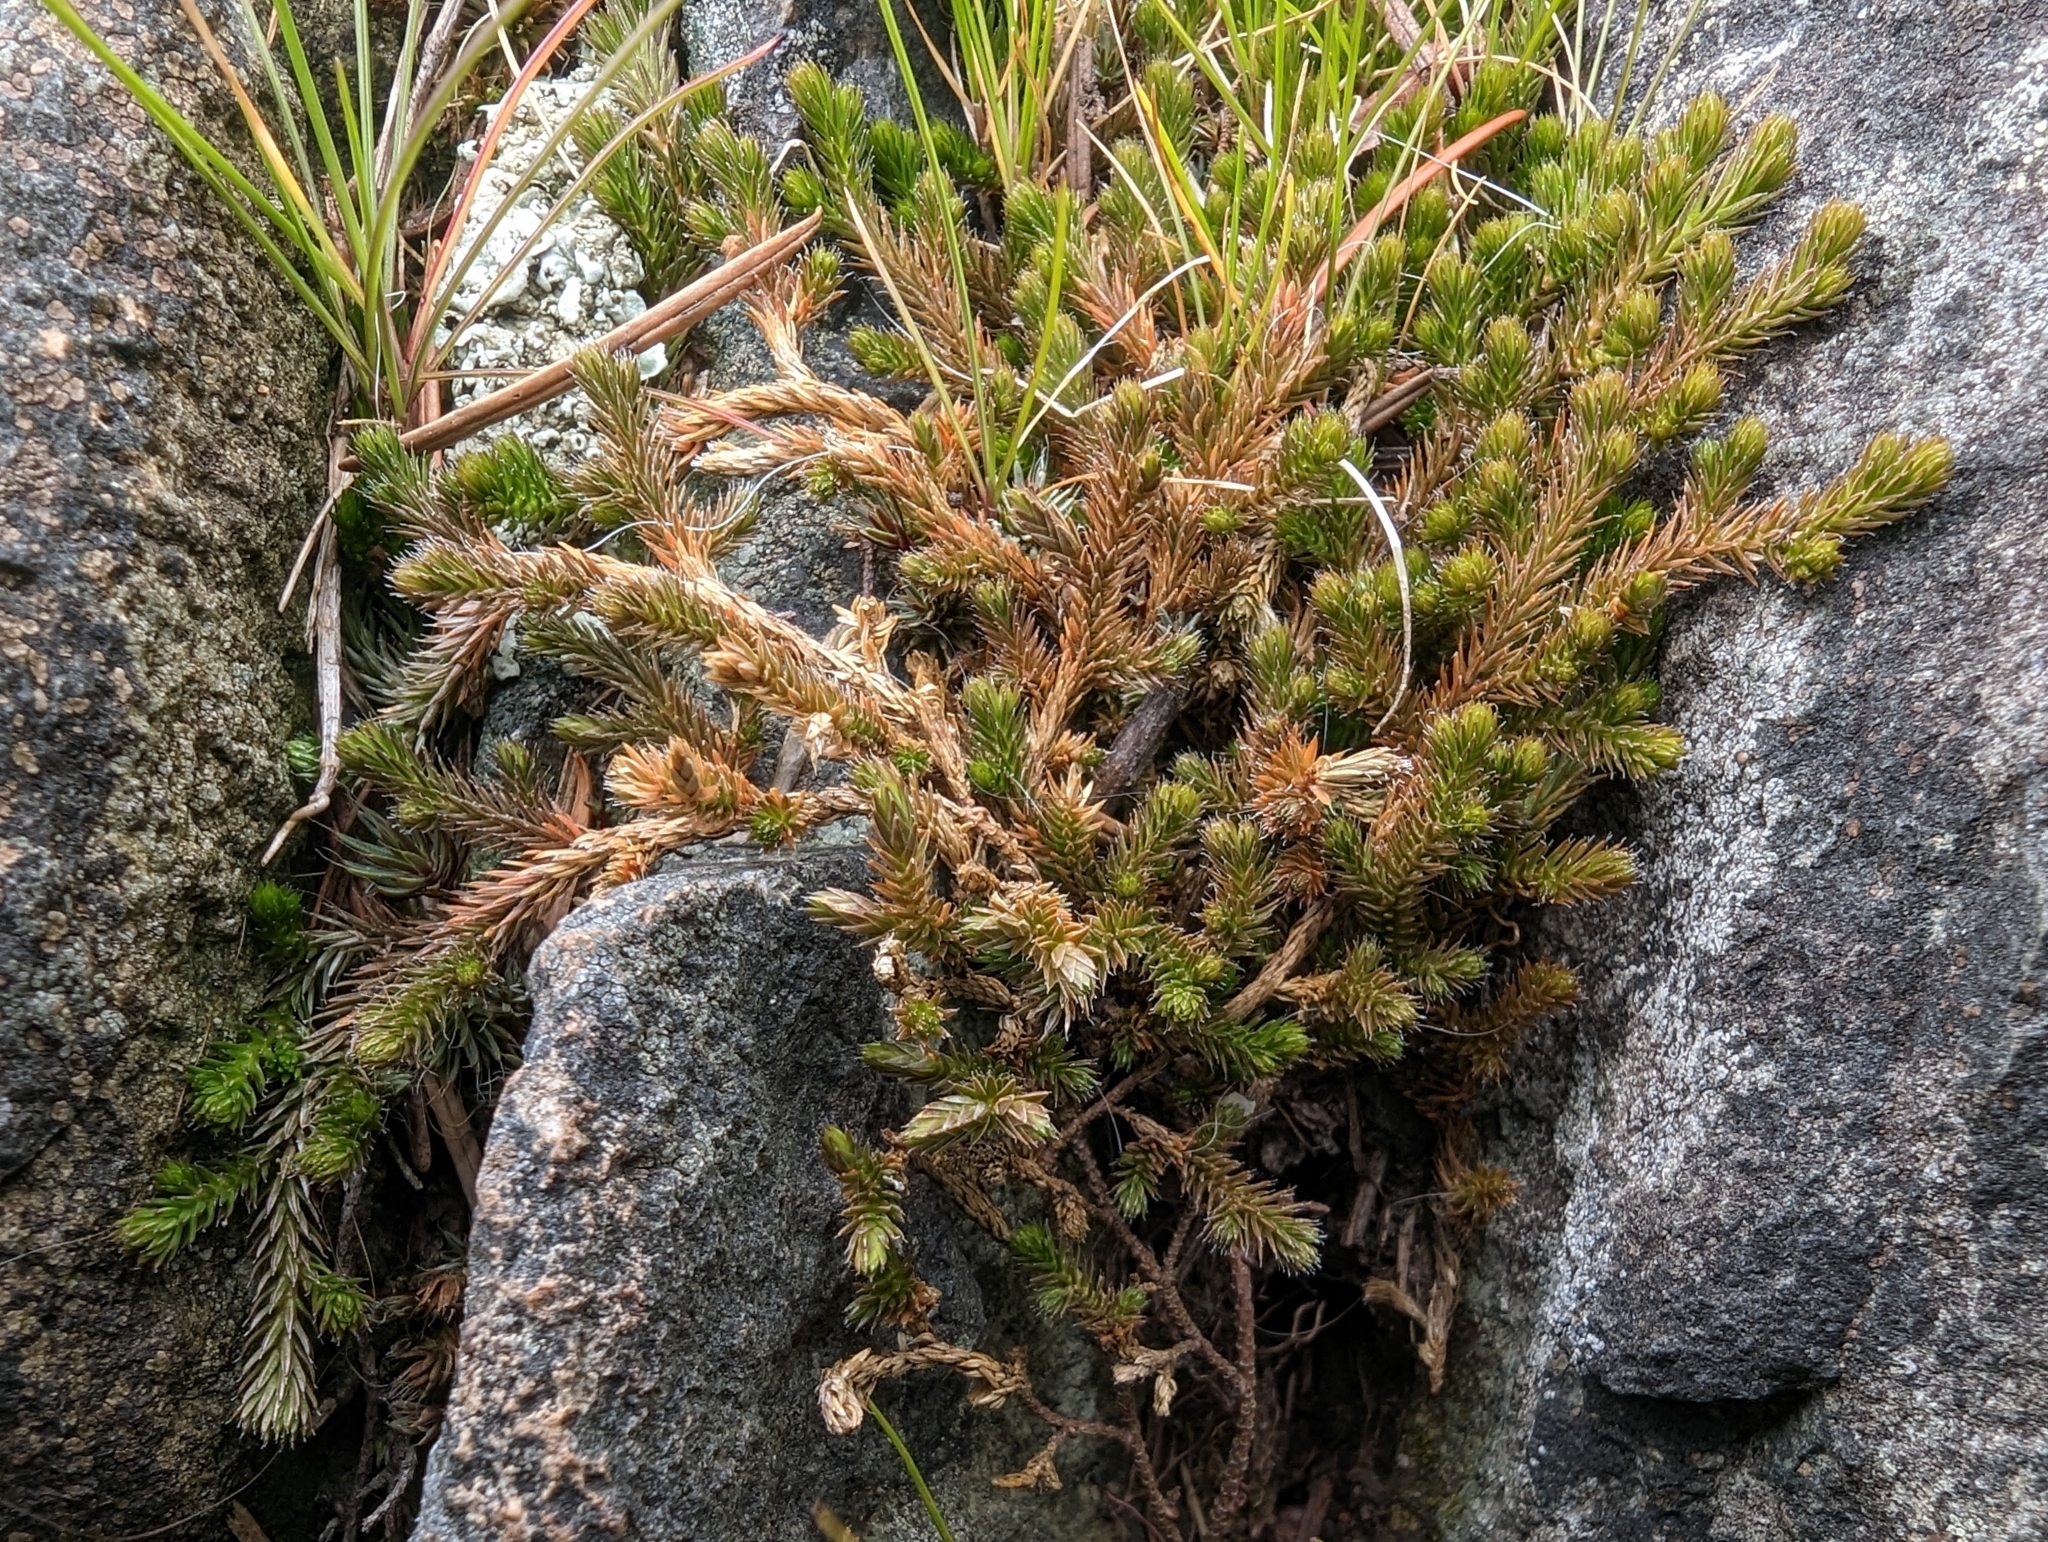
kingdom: Plantae
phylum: Tracheophyta
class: Lycopodiopsida
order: Selaginellales
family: Selaginellaceae
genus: Selaginella
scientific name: Selaginella wallacei
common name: Wallace's selaginella
